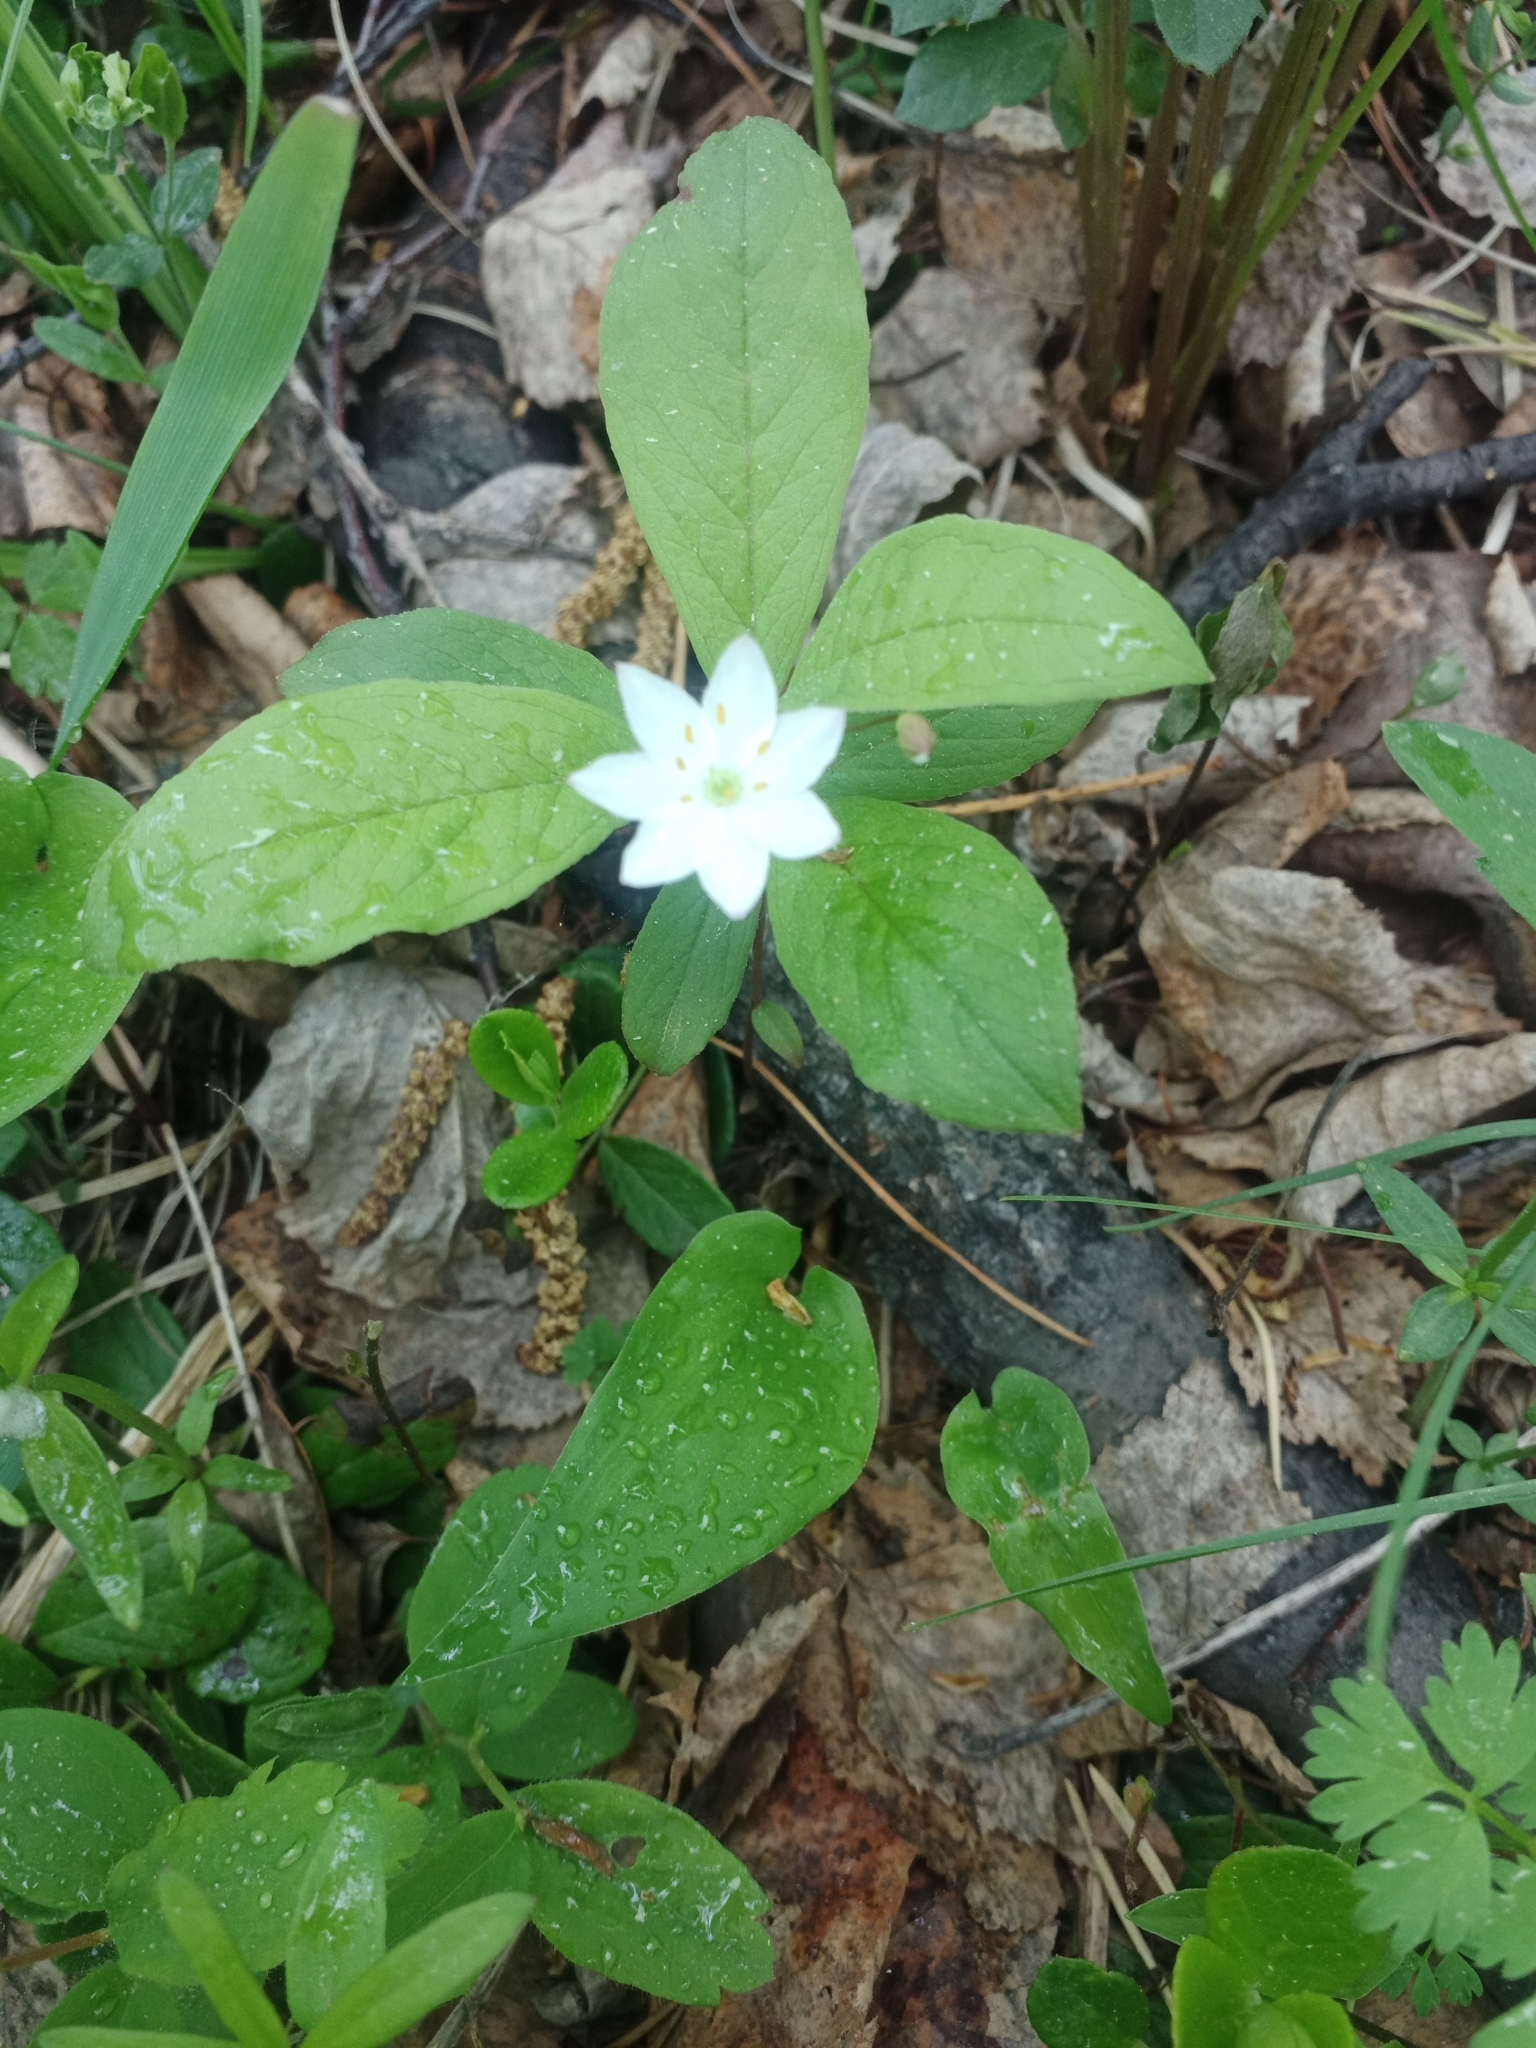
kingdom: Plantae
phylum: Tracheophyta
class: Magnoliopsida
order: Ericales
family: Primulaceae
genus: Lysimachia
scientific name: Lysimachia europaea
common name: Arctic starflower
